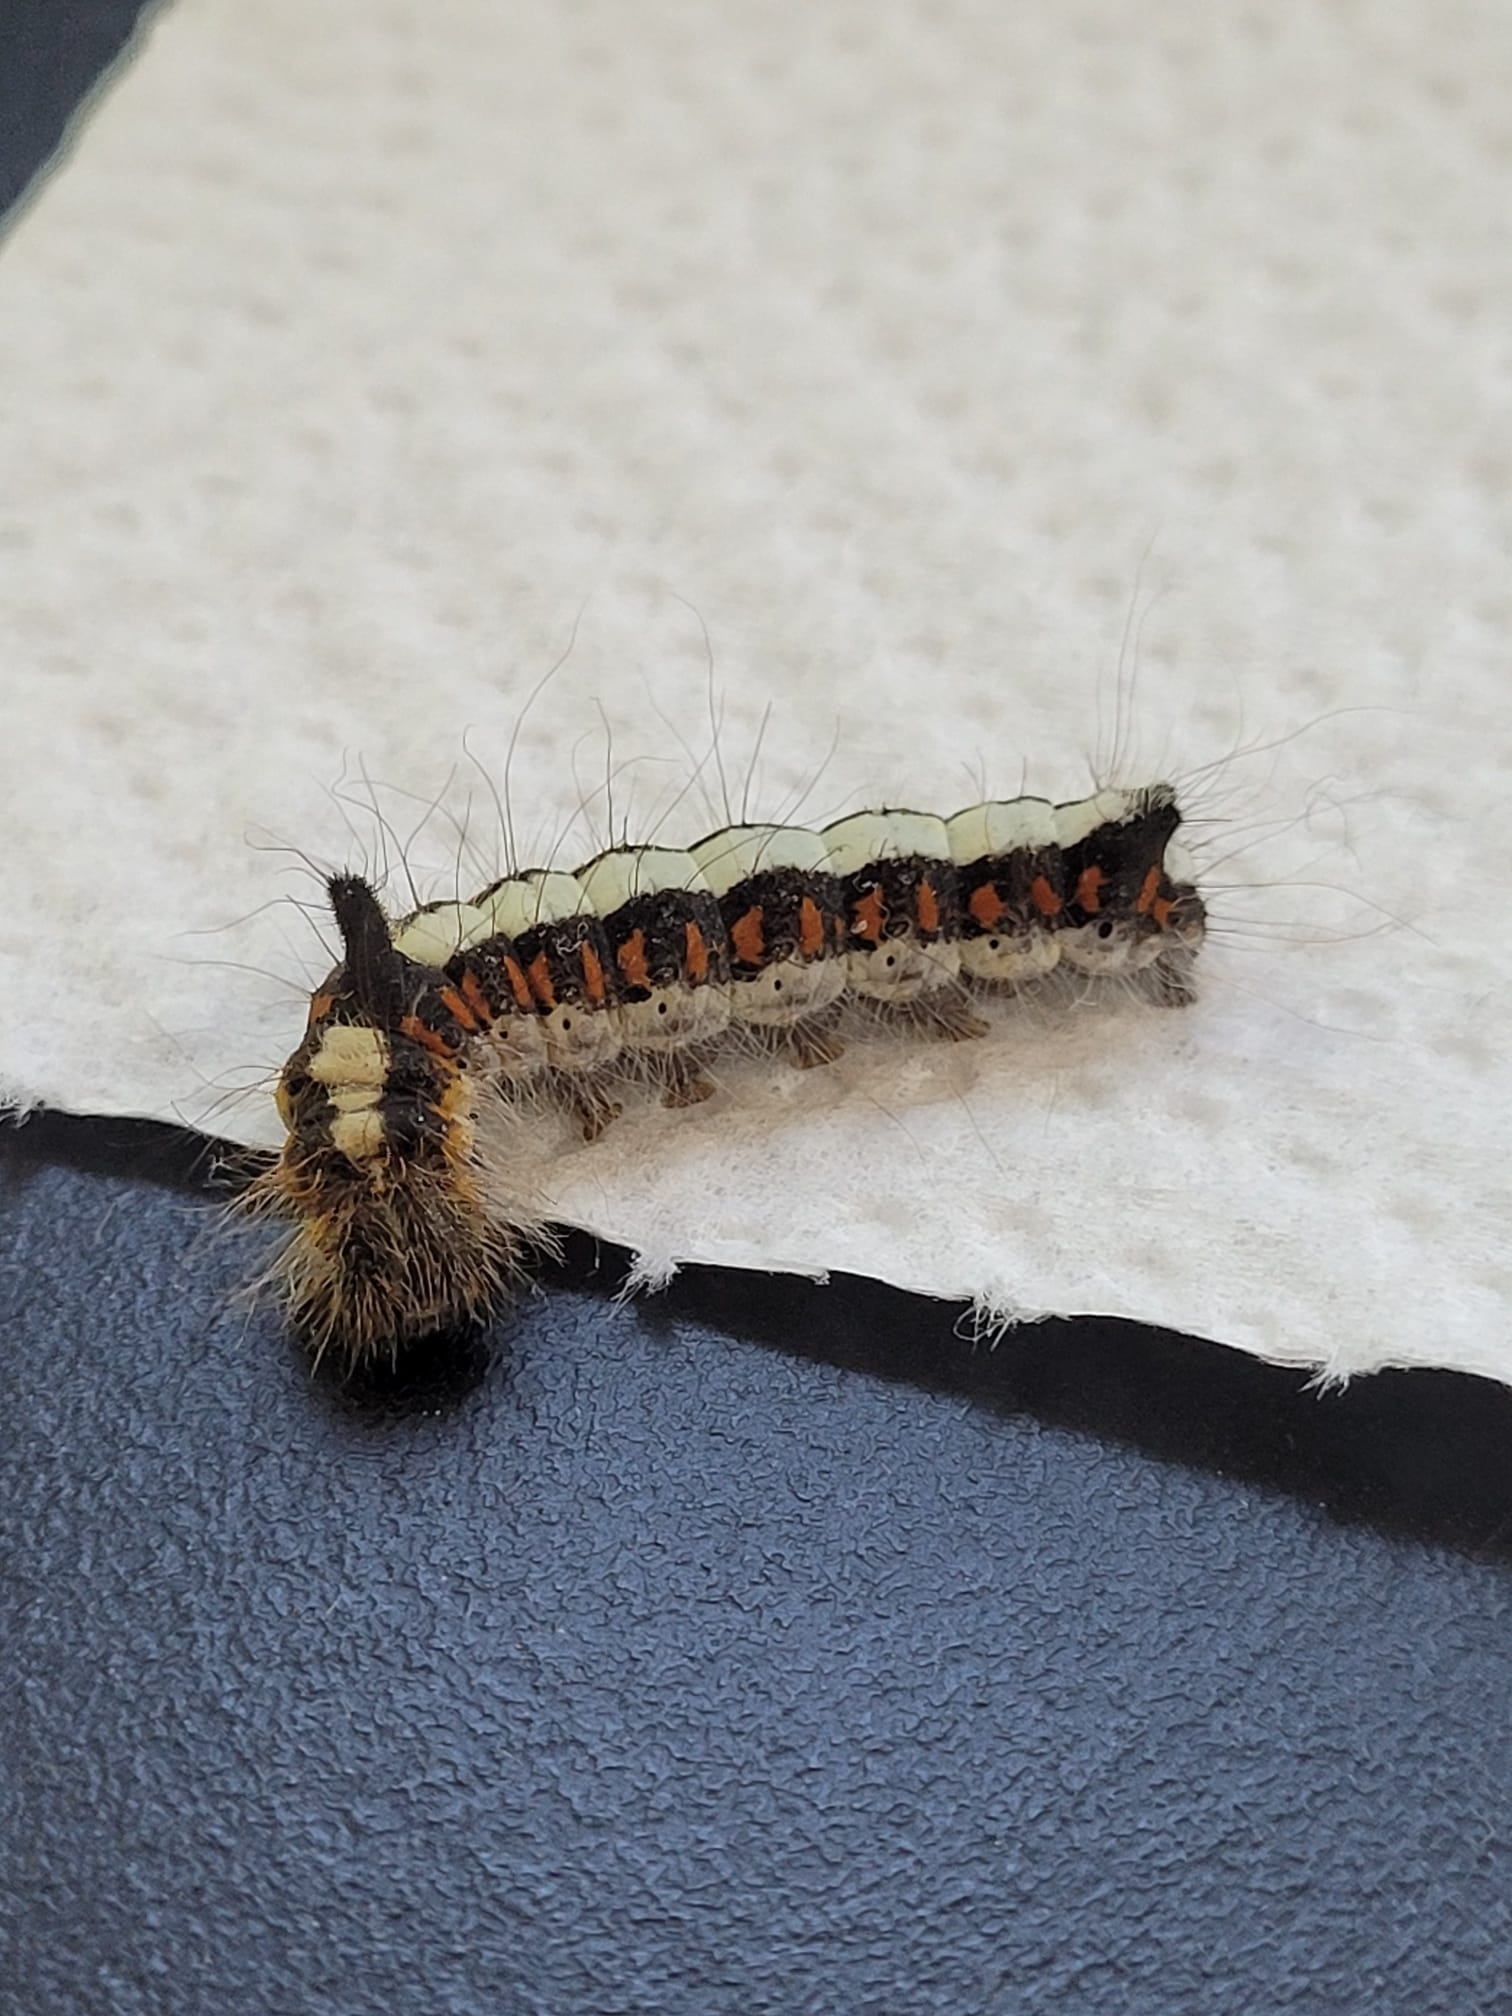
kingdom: Animalia
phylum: Arthropoda
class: Insecta
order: Lepidoptera
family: Noctuidae
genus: Acronicta
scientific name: Acronicta psi
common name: Grey dagger
